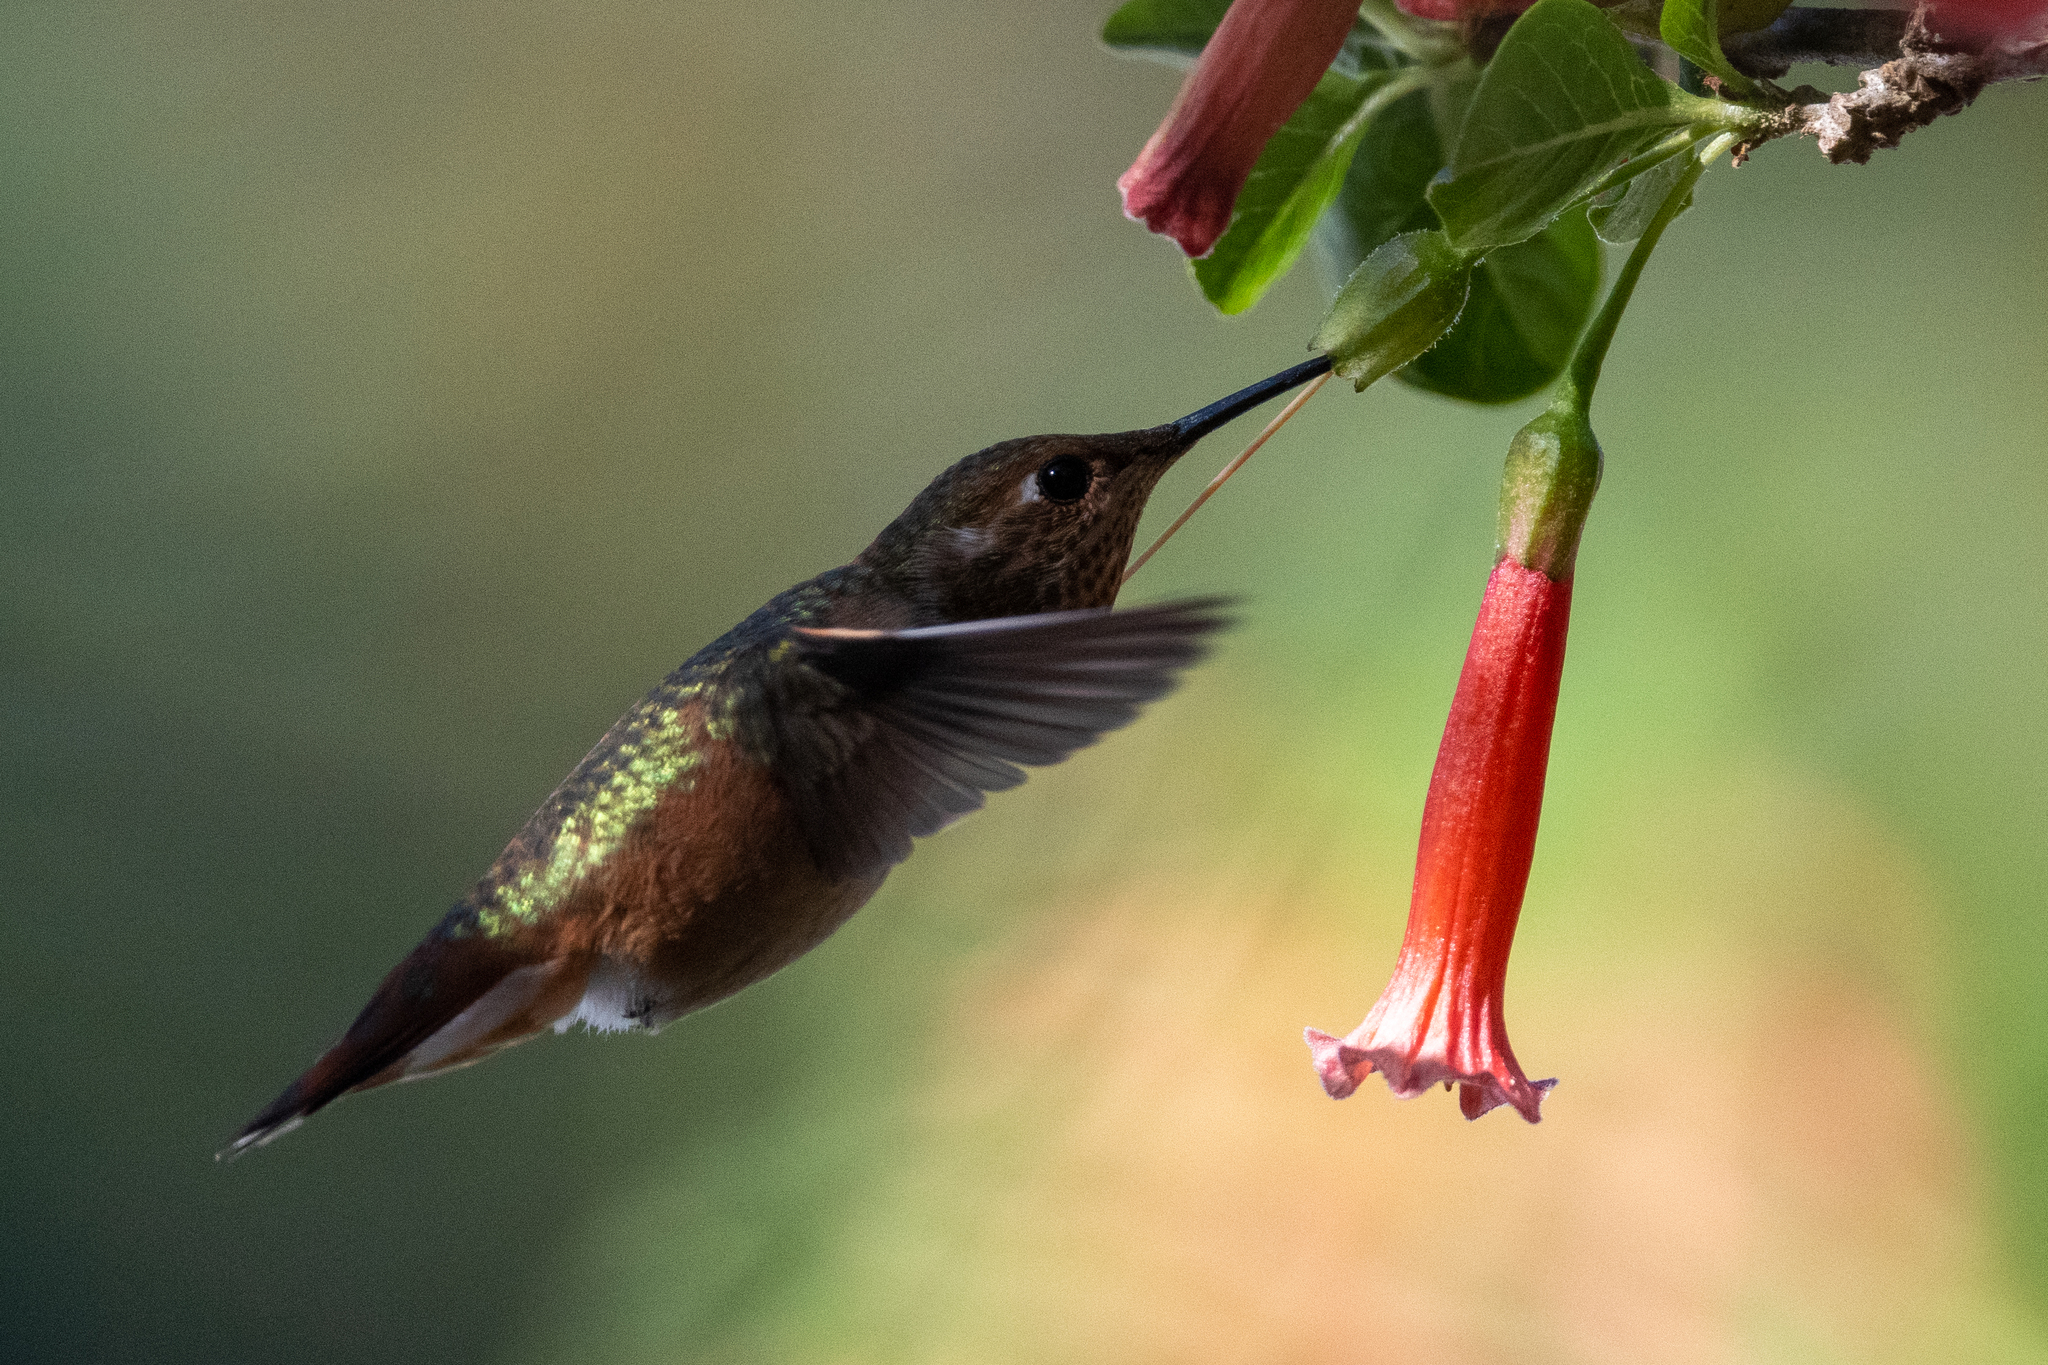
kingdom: Animalia
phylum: Chordata
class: Aves
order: Apodiformes
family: Trochilidae
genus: Selasphorus
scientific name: Selasphorus
